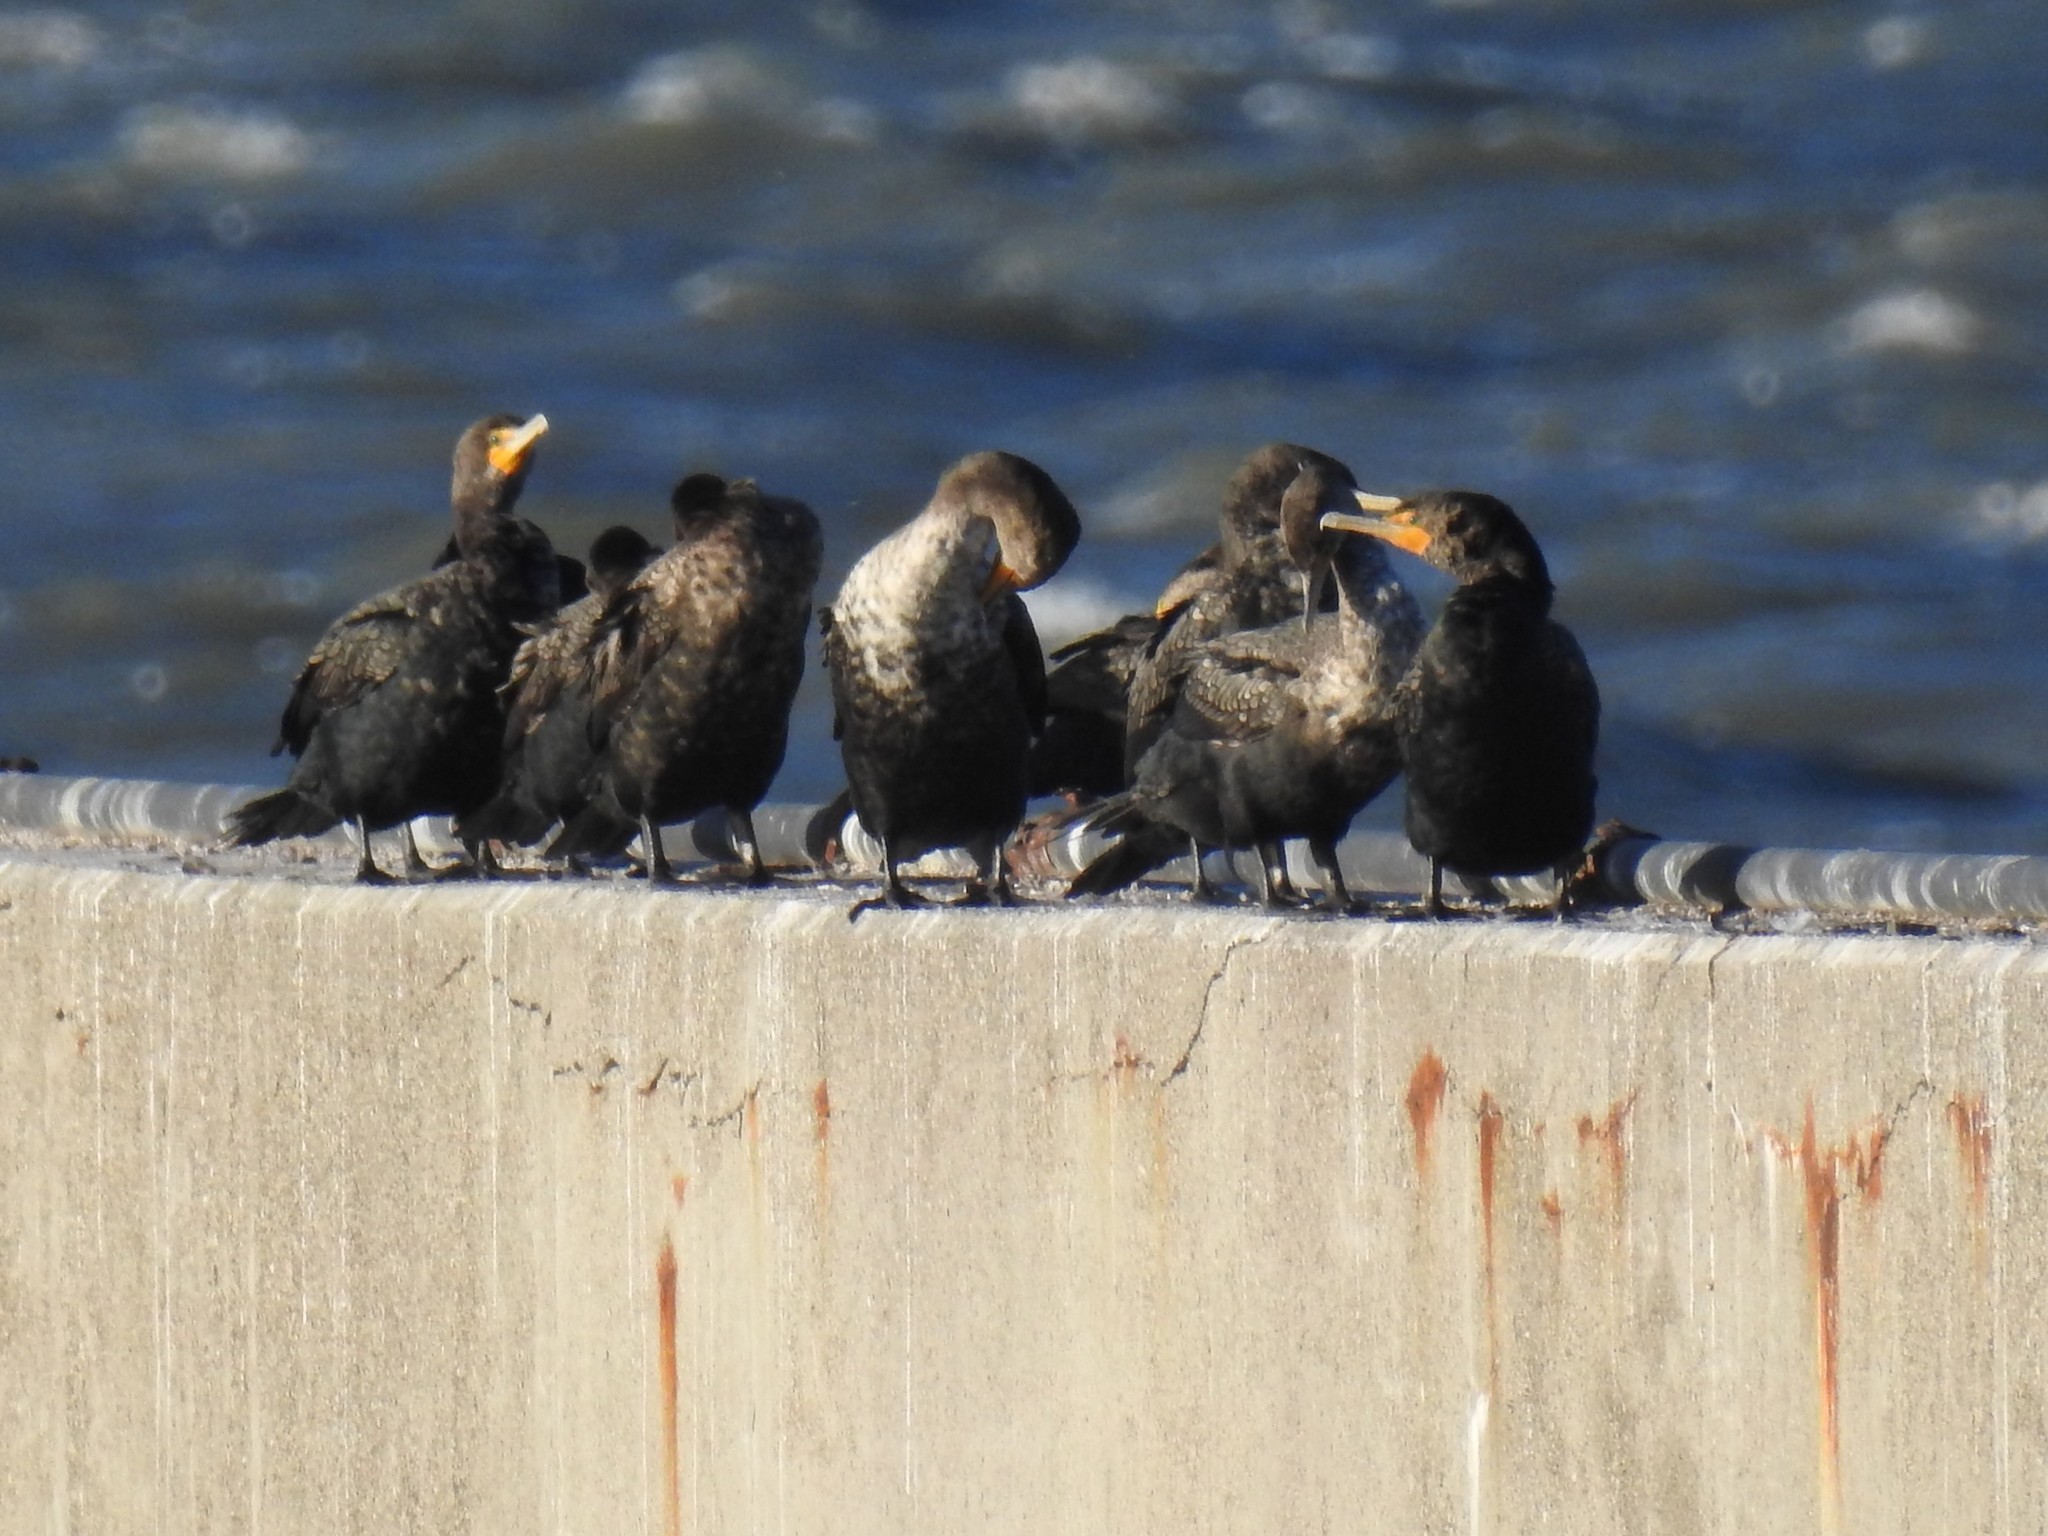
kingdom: Animalia
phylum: Chordata
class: Aves
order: Suliformes
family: Phalacrocoracidae
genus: Phalacrocorax
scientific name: Phalacrocorax auritus
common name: Double-crested cormorant
